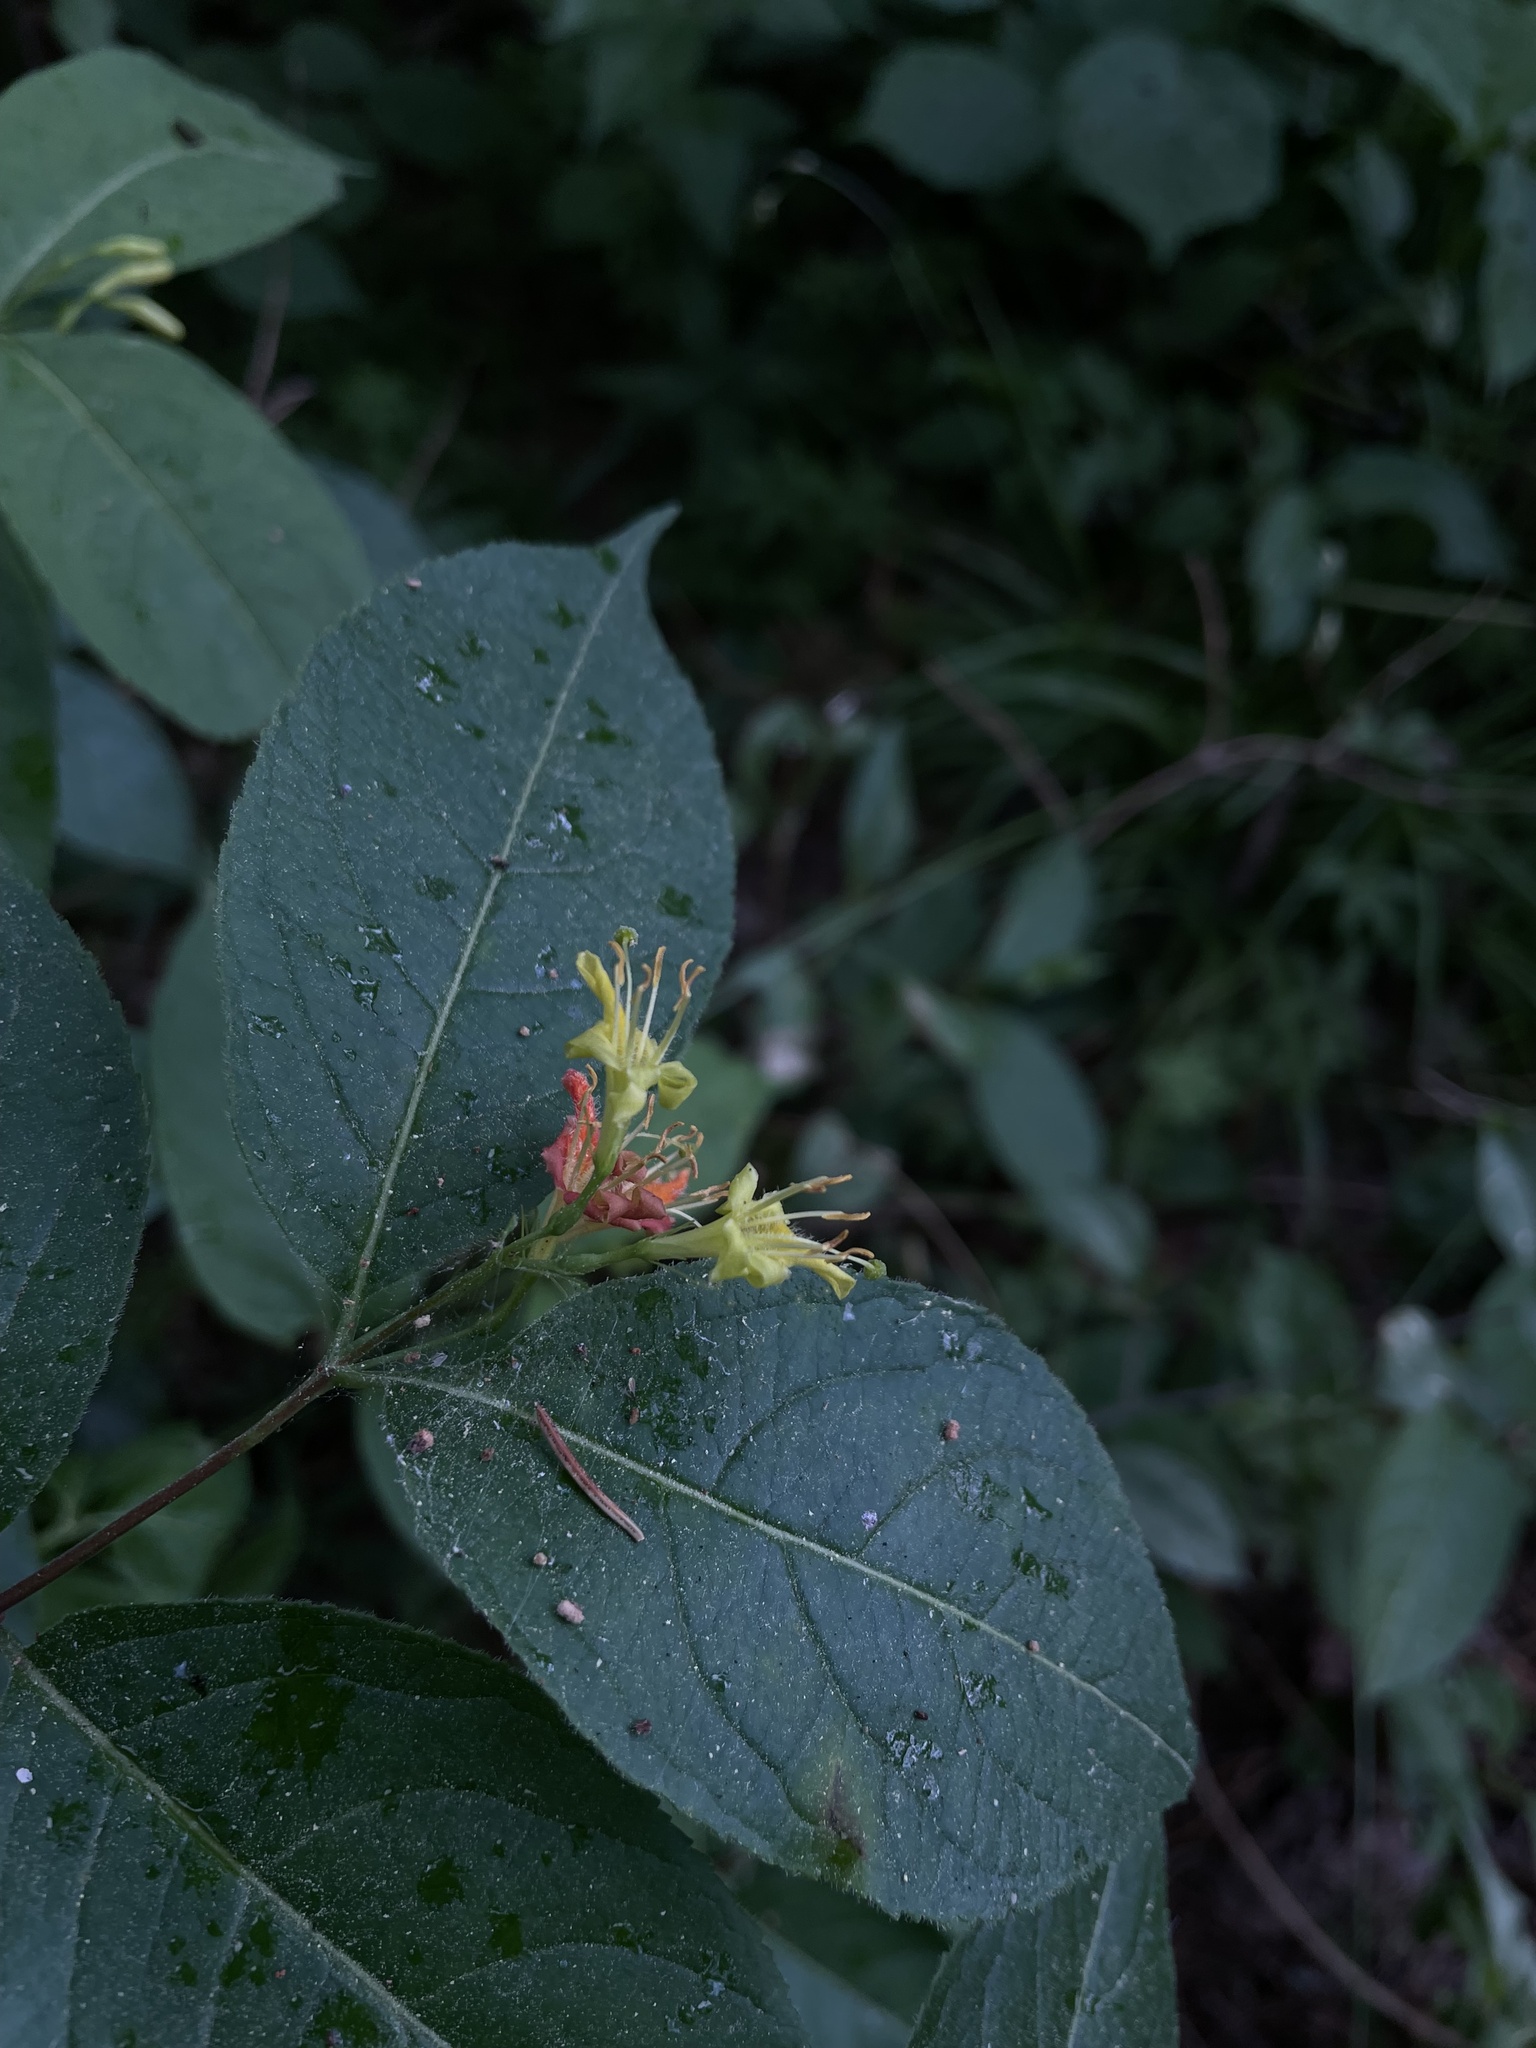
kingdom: Plantae
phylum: Tracheophyta
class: Magnoliopsida
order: Dipsacales
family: Caprifoliaceae
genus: Diervilla
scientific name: Diervilla lonicera
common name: Bush-honeysuckle
